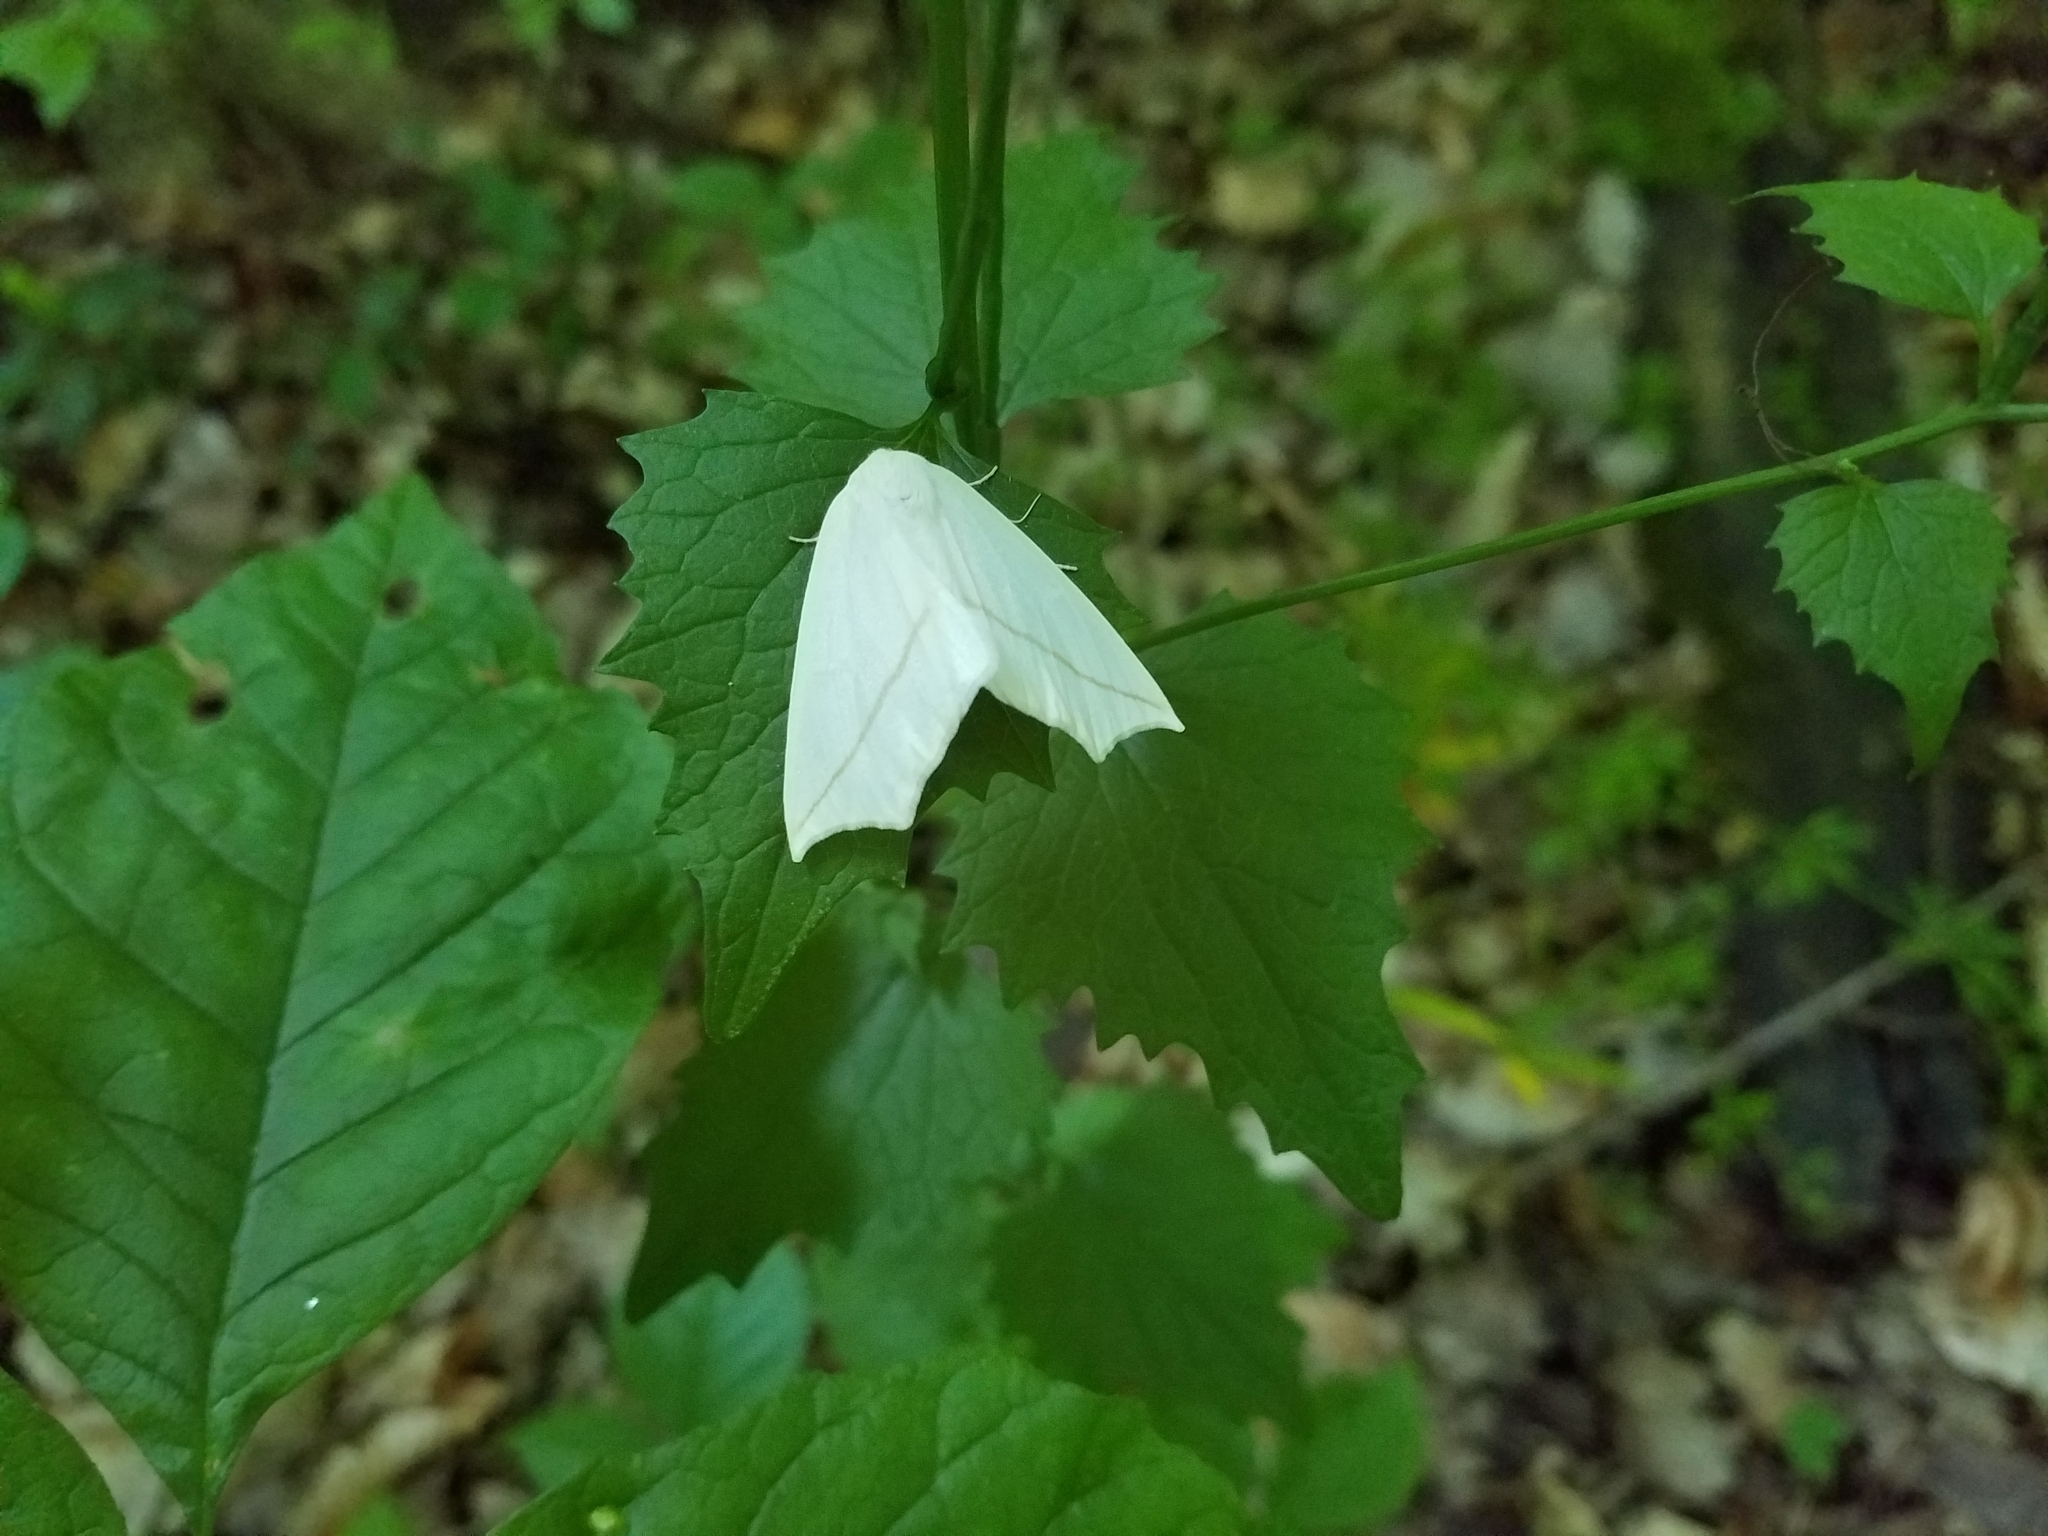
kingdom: Animalia
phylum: Arthropoda
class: Insecta
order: Lepidoptera
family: Geometridae
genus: Tetracis
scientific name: Tetracis cachexiata
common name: White slant-line
